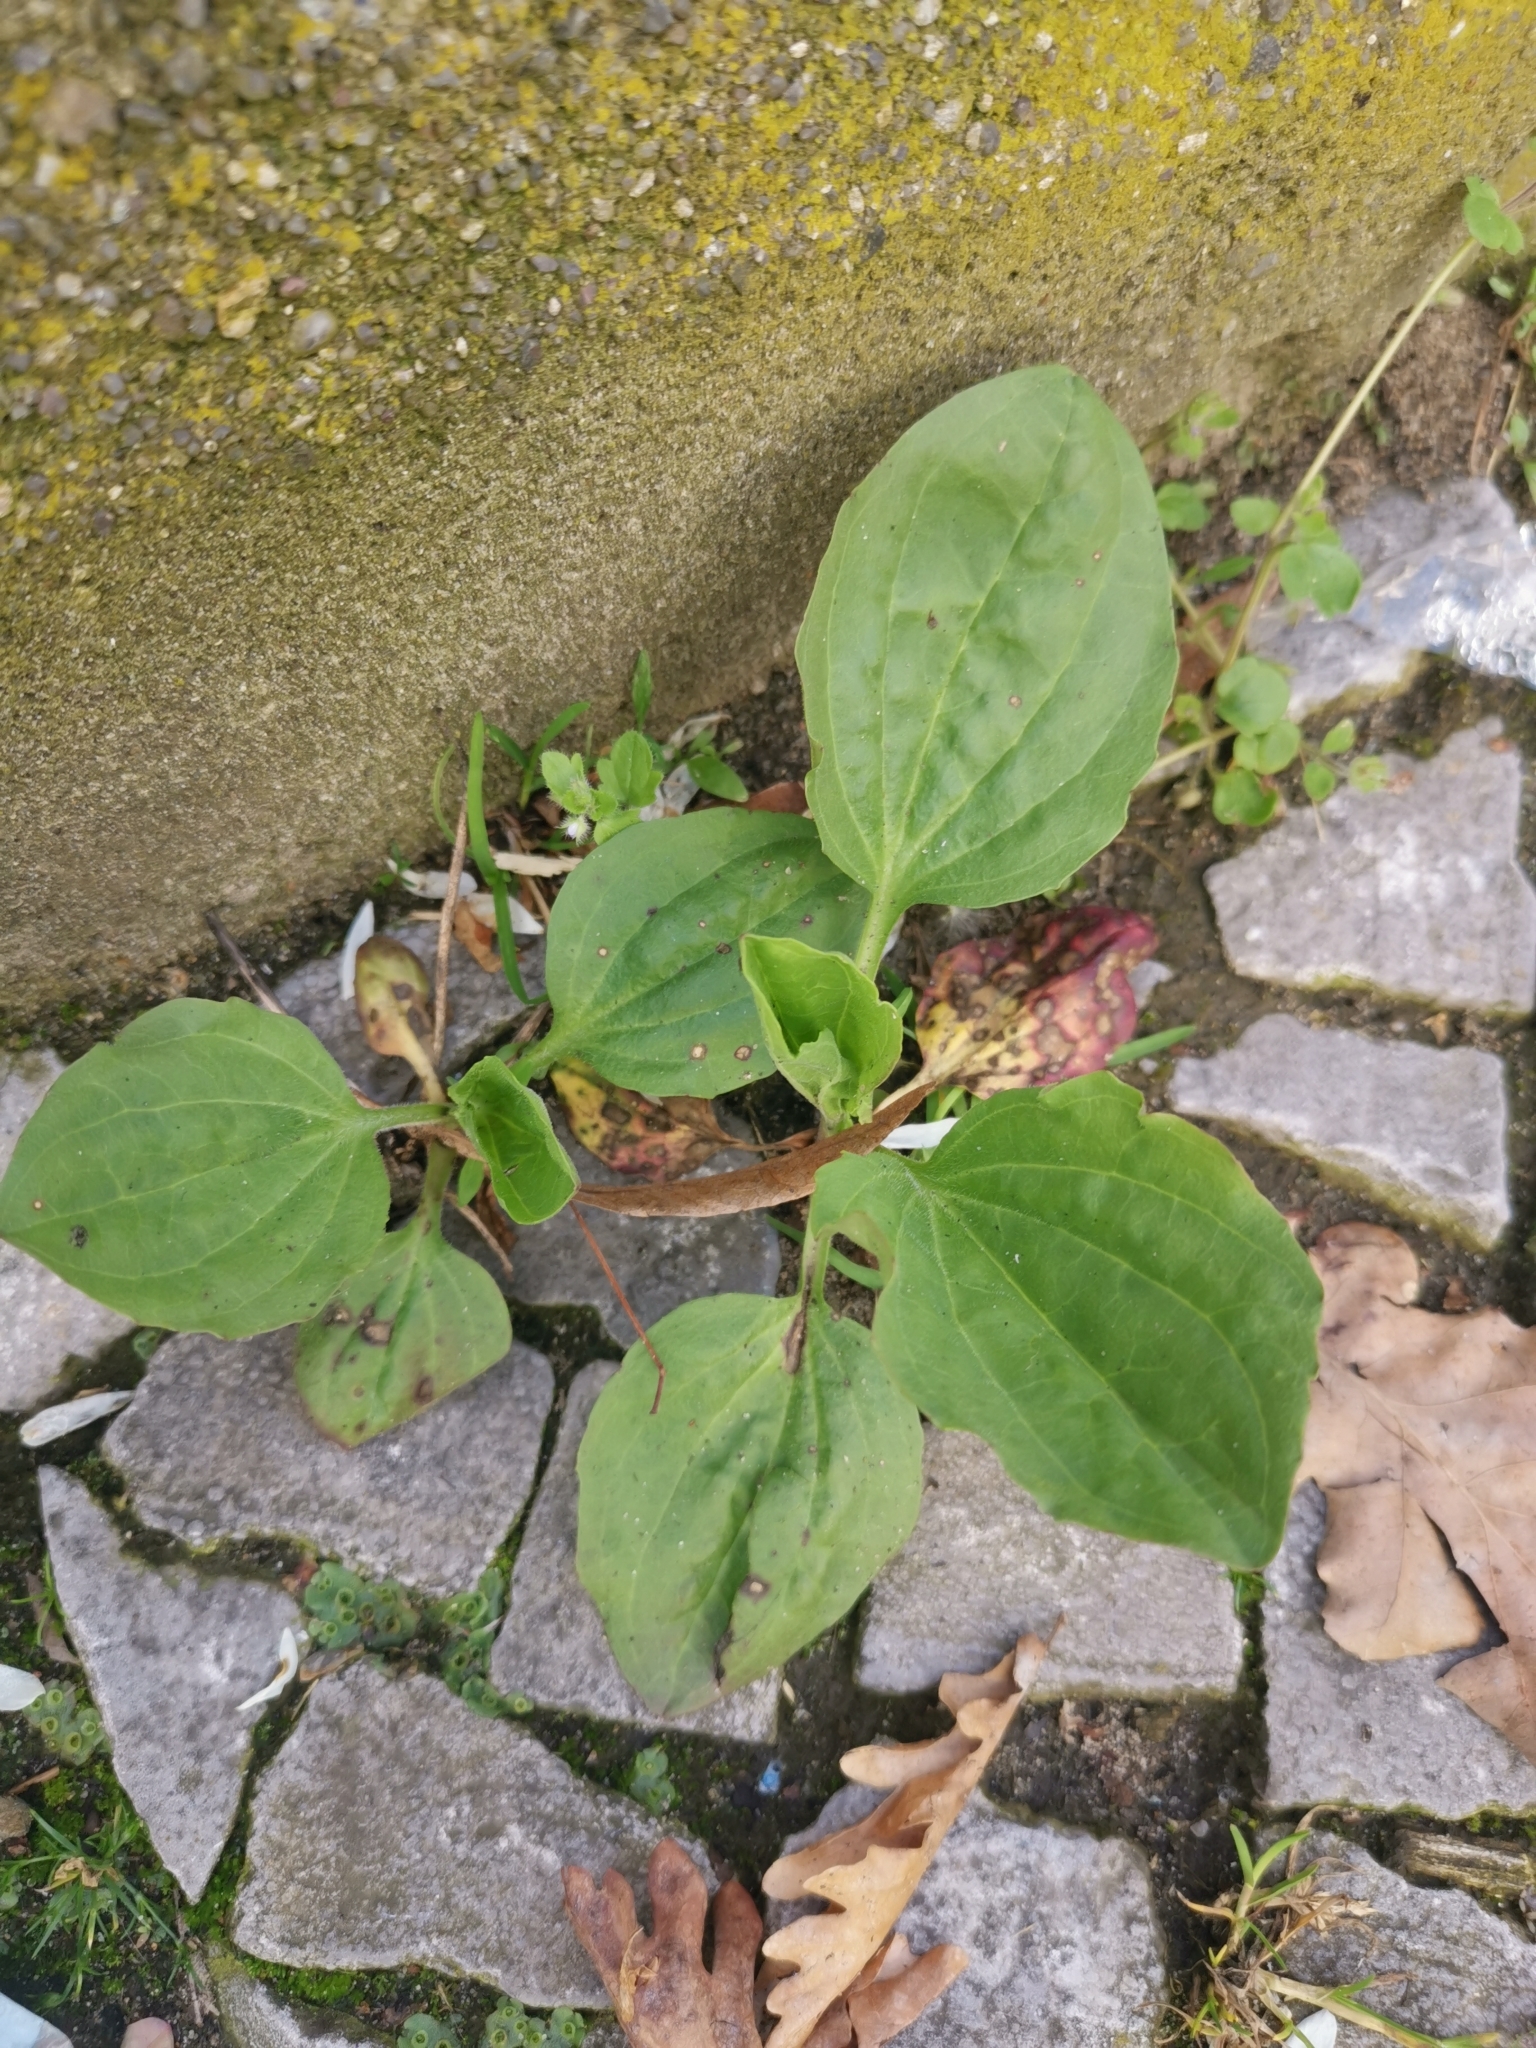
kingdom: Plantae
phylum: Tracheophyta
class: Magnoliopsida
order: Lamiales
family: Plantaginaceae
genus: Plantago
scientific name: Plantago major
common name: Common plantain
